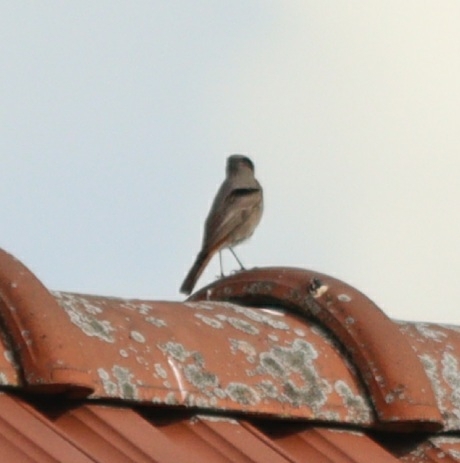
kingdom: Animalia
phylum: Chordata
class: Aves
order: Passeriformes
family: Muscicapidae
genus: Phoenicurus
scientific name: Phoenicurus ochruros
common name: Black redstart
